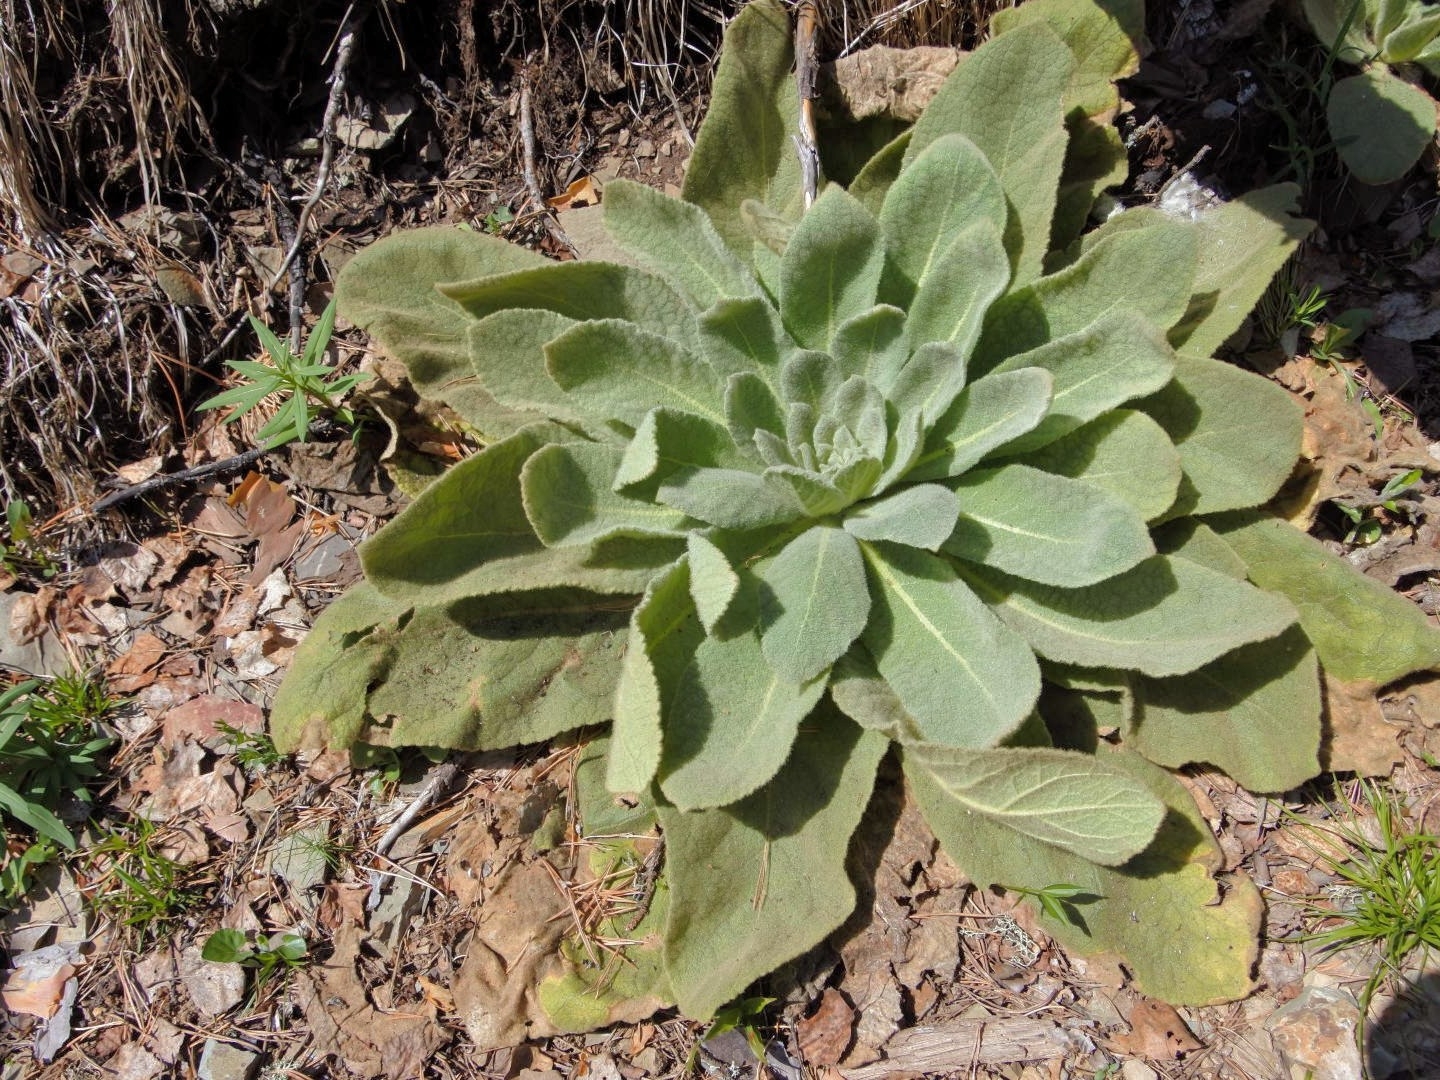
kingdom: Plantae
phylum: Tracheophyta
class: Magnoliopsida
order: Lamiales
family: Scrophulariaceae
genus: Verbascum
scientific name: Verbascum thapsus
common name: Common mullein
